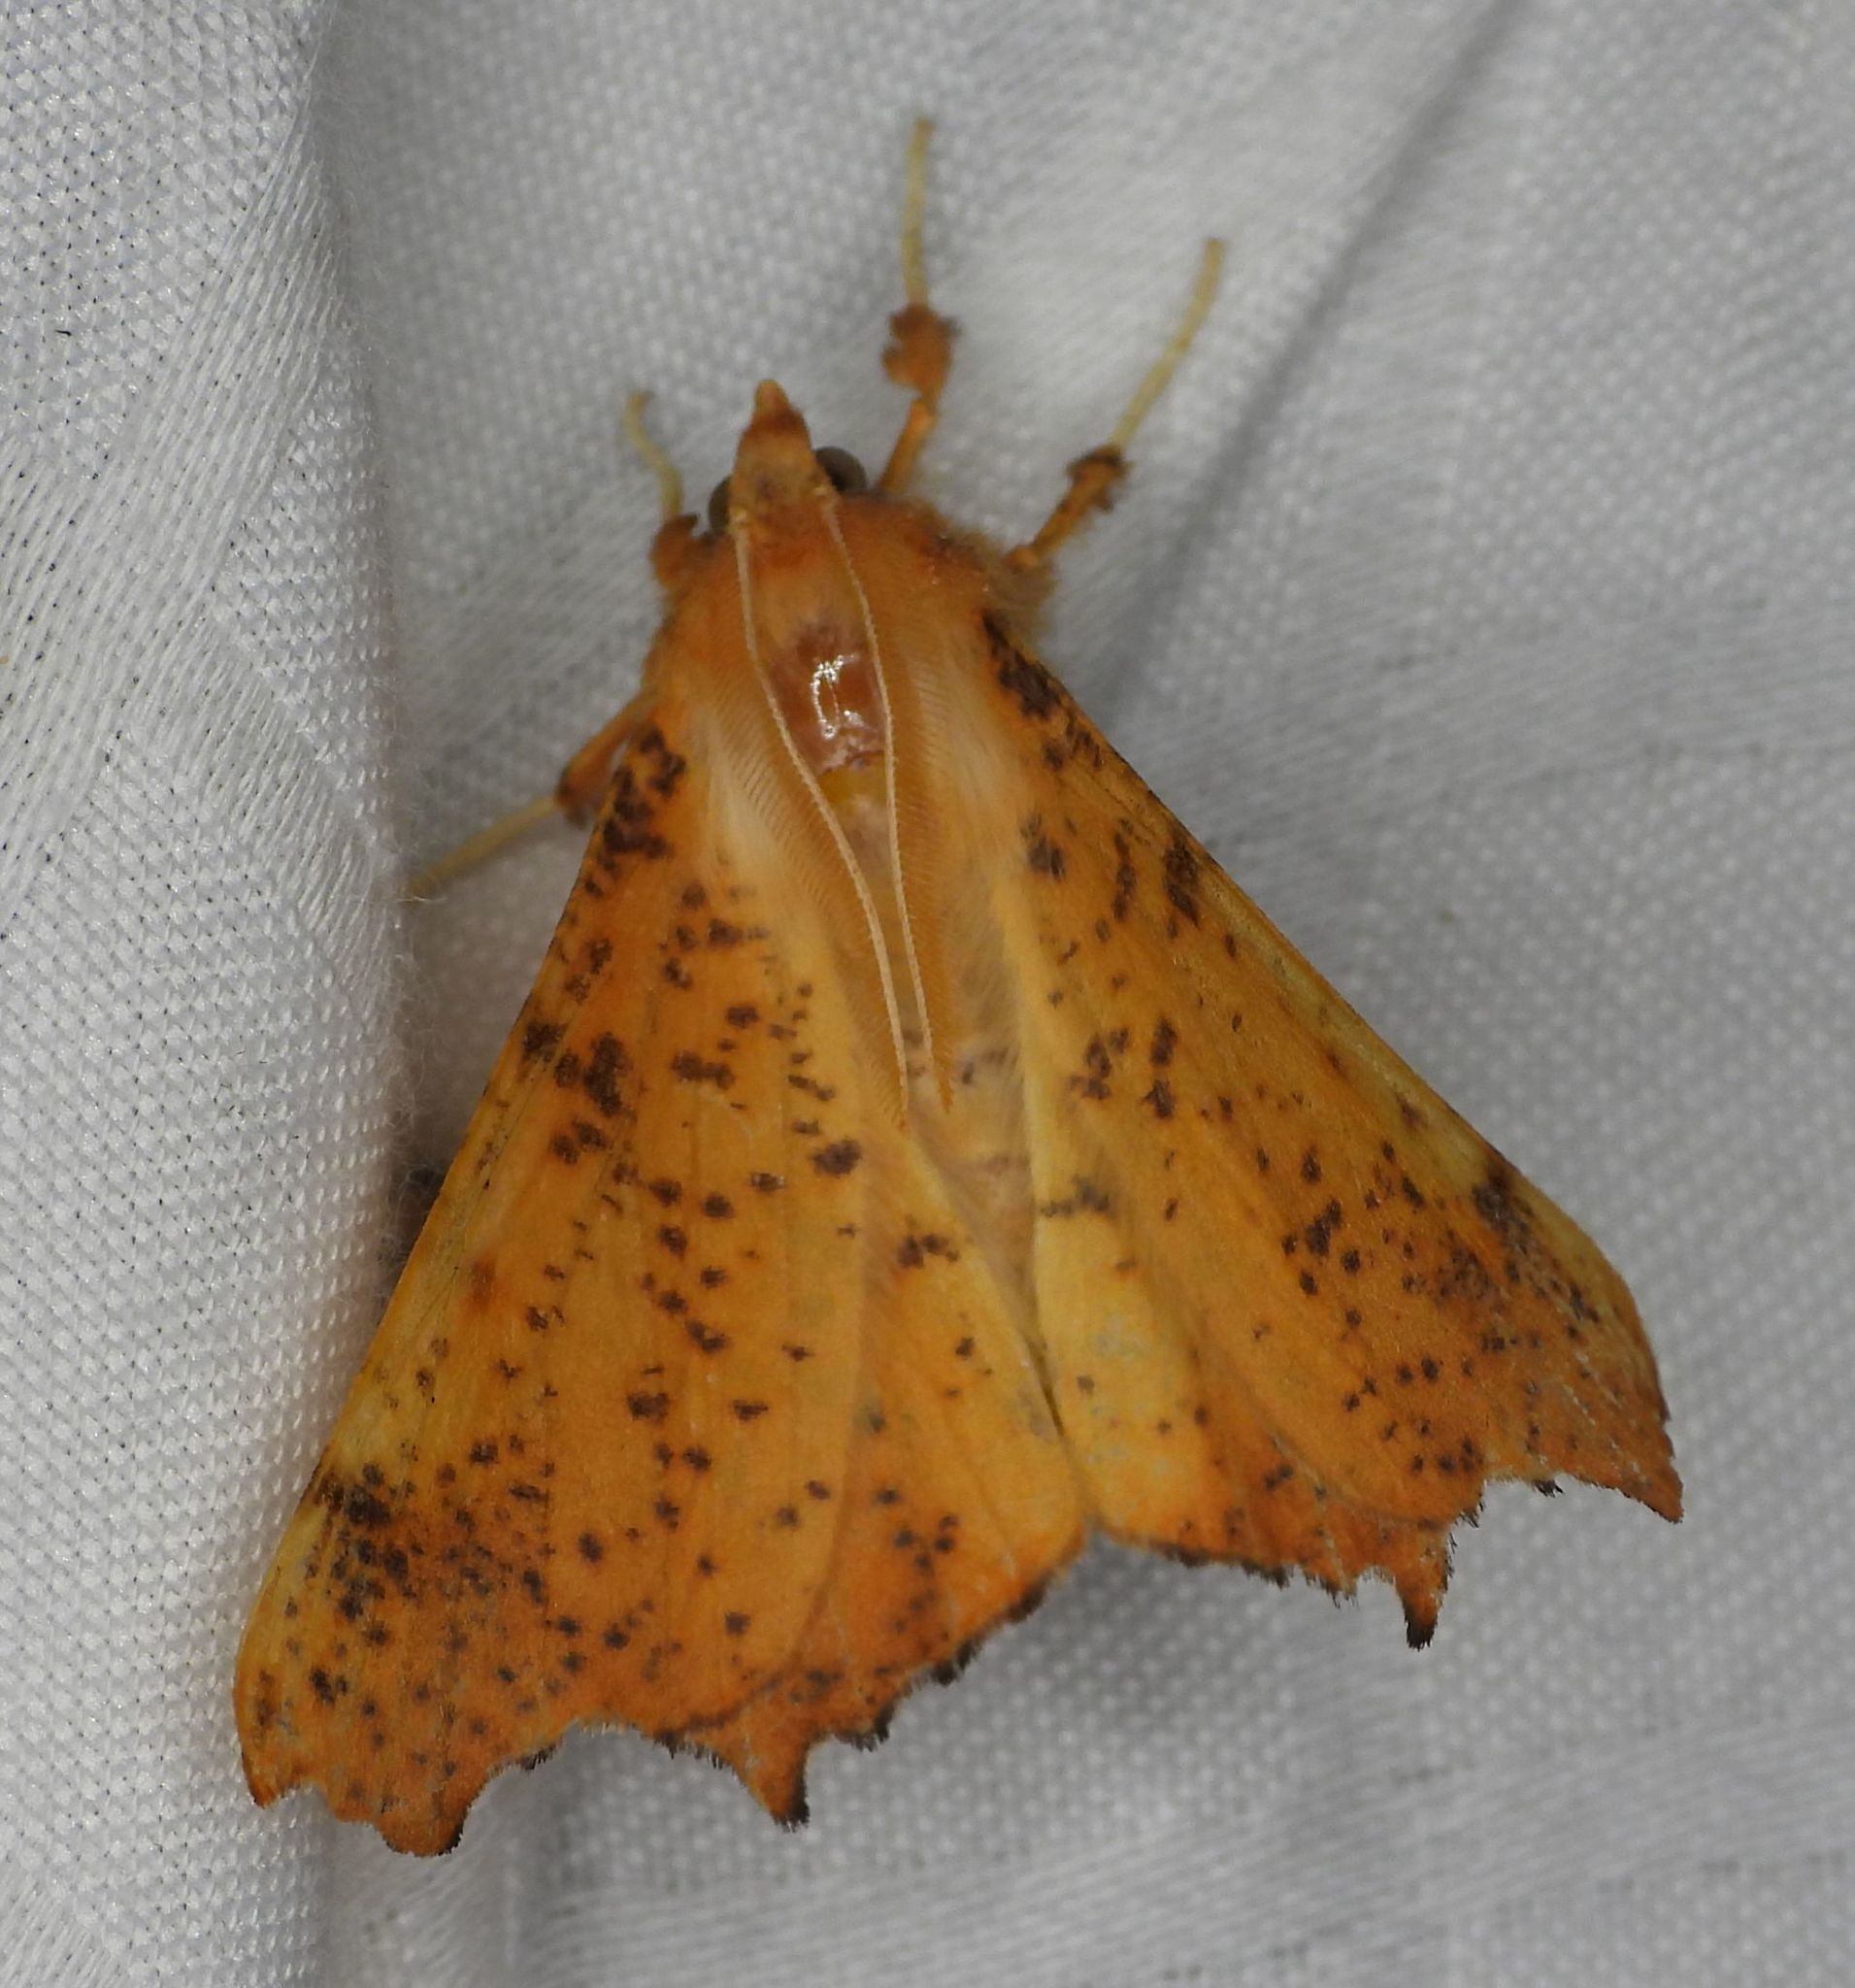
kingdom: Animalia
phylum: Arthropoda
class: Insecta
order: Lepidoptera
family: Geometridae
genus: Ennomos
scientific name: Ennomos magnaria
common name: Maple spanworm
